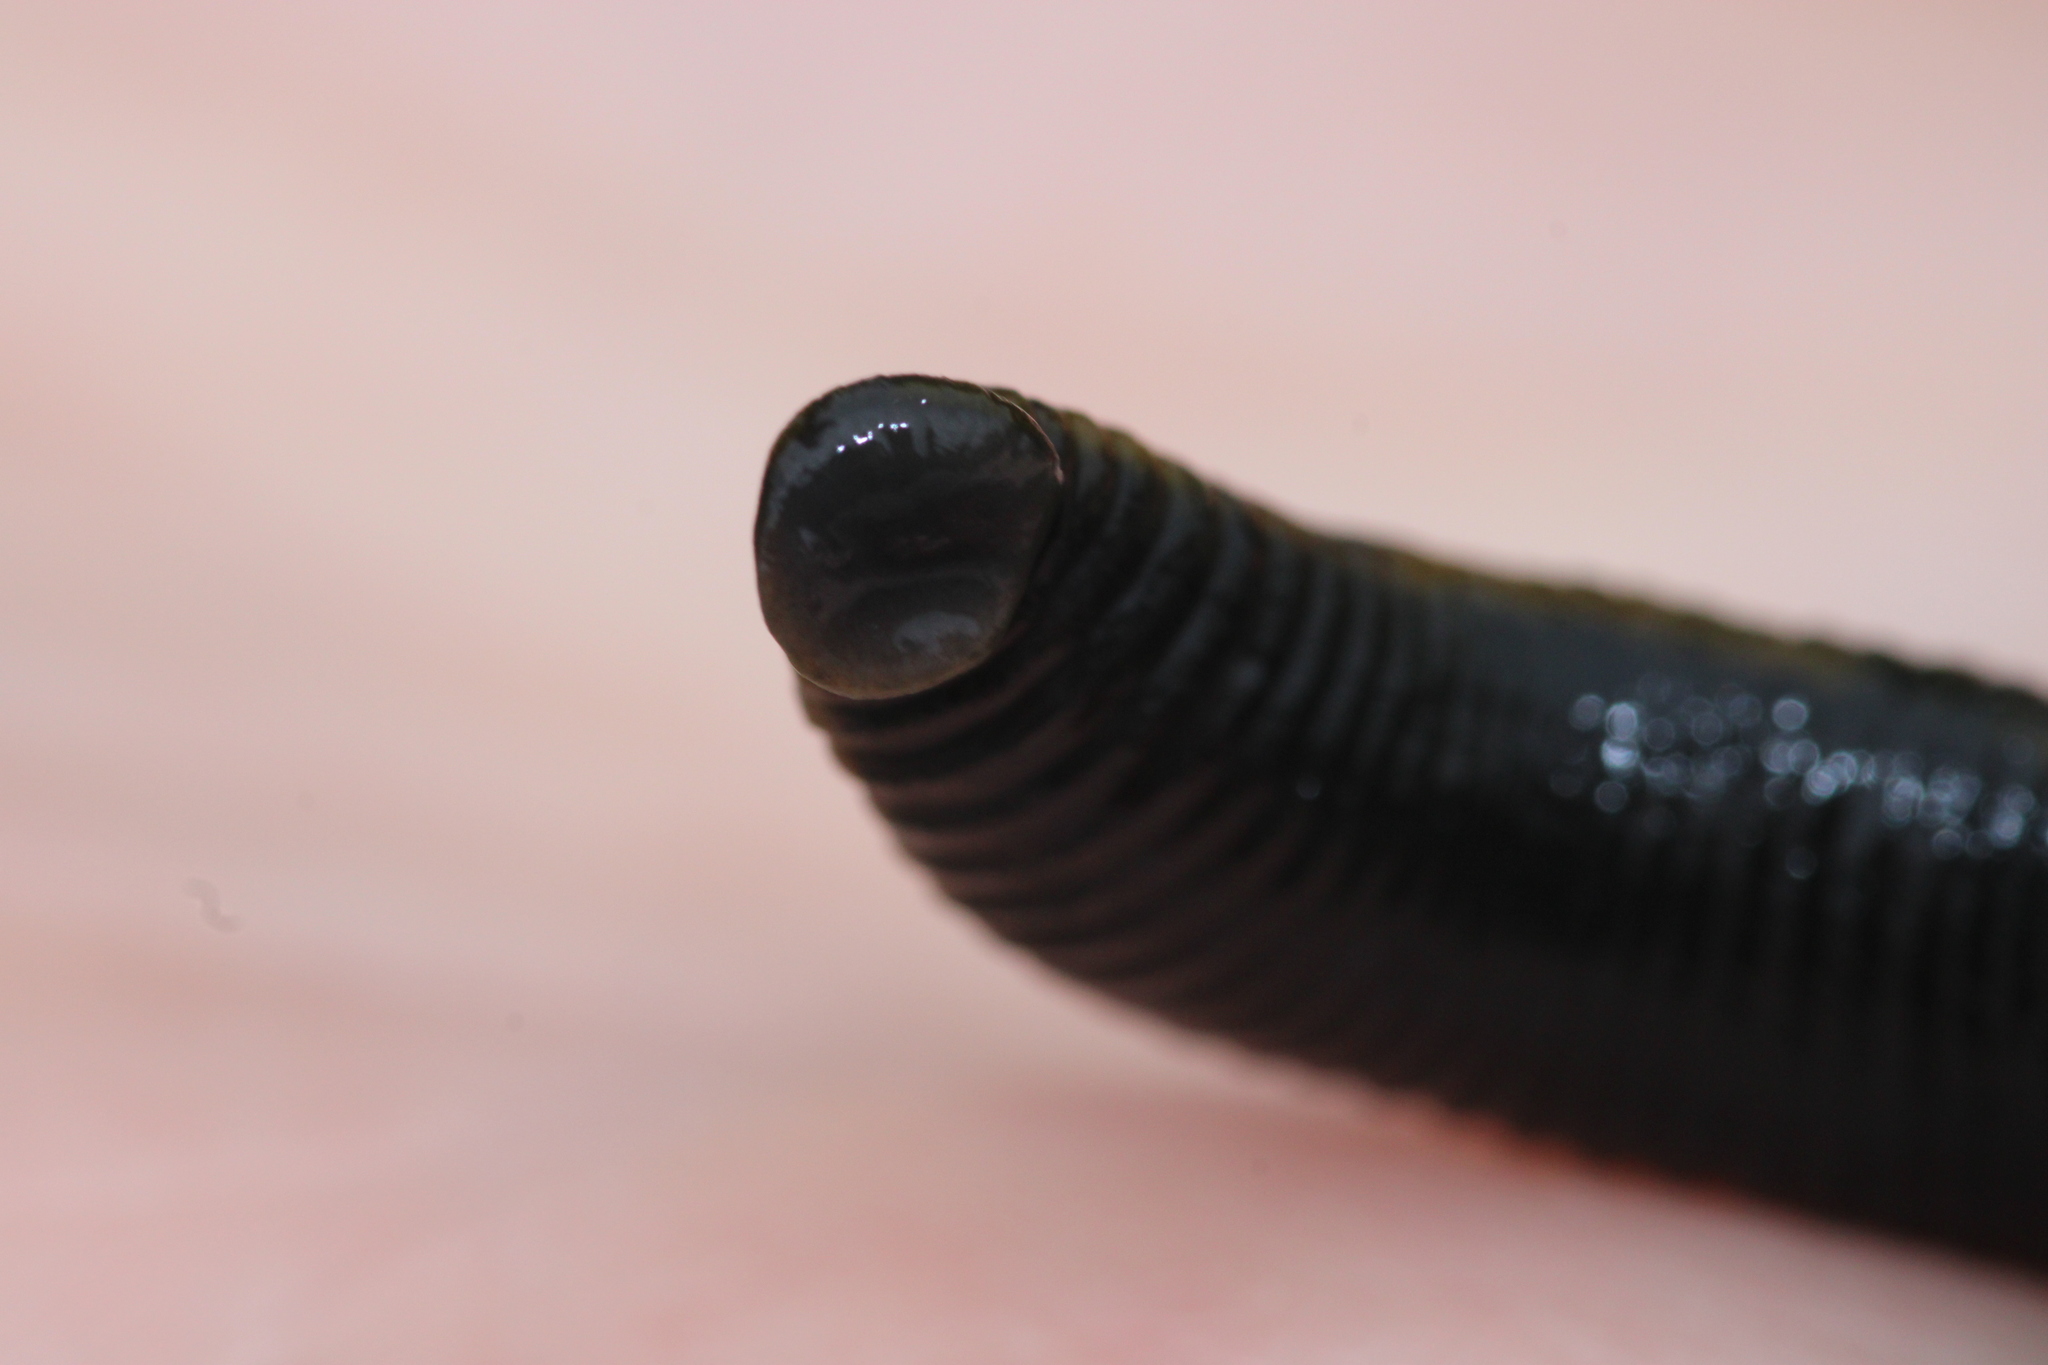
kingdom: Animalia
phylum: Annelida
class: Clitellata
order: Arhynchobdellida
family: Haemopidae
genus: Haemopis
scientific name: Haemopis elegans
